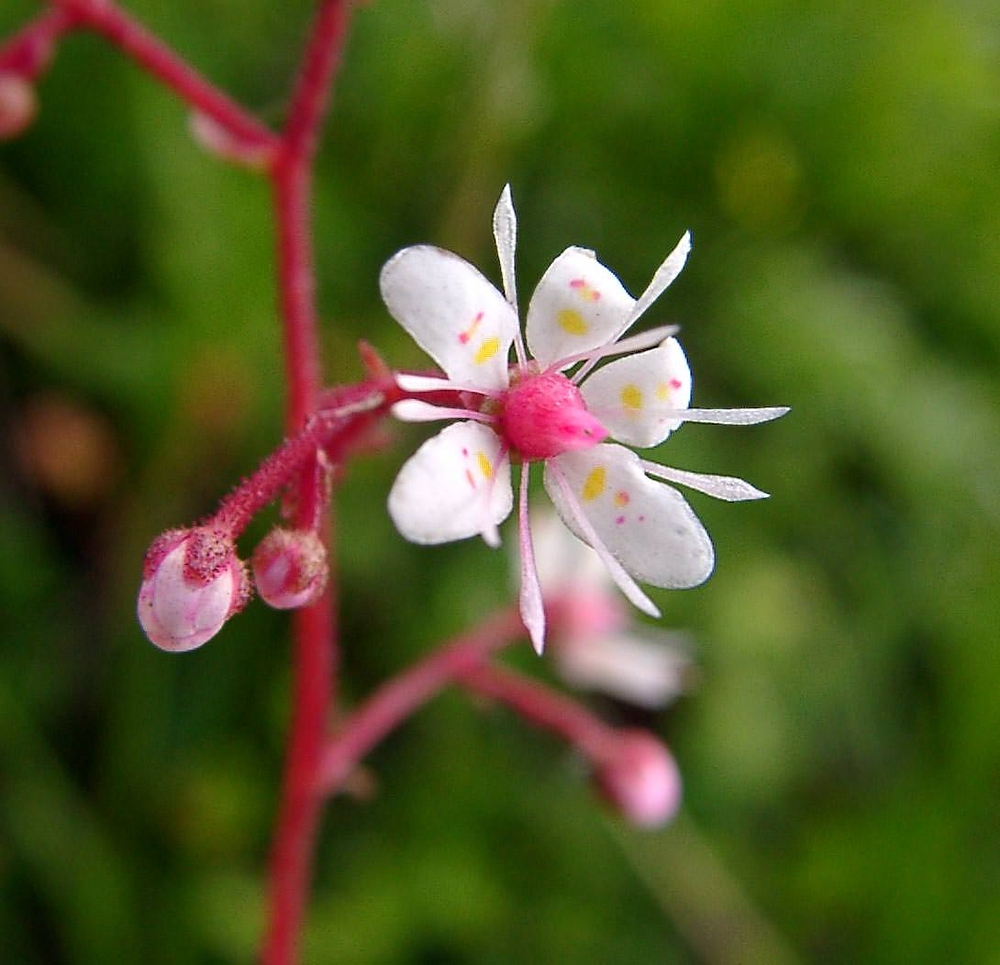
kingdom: Plantae
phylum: Tracheophyta
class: Magnoliopsida
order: Saxifragales
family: Saxifragaceae
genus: Saxifraga
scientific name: Saxifraga umbrosa
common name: Pyrenean saxifrage
